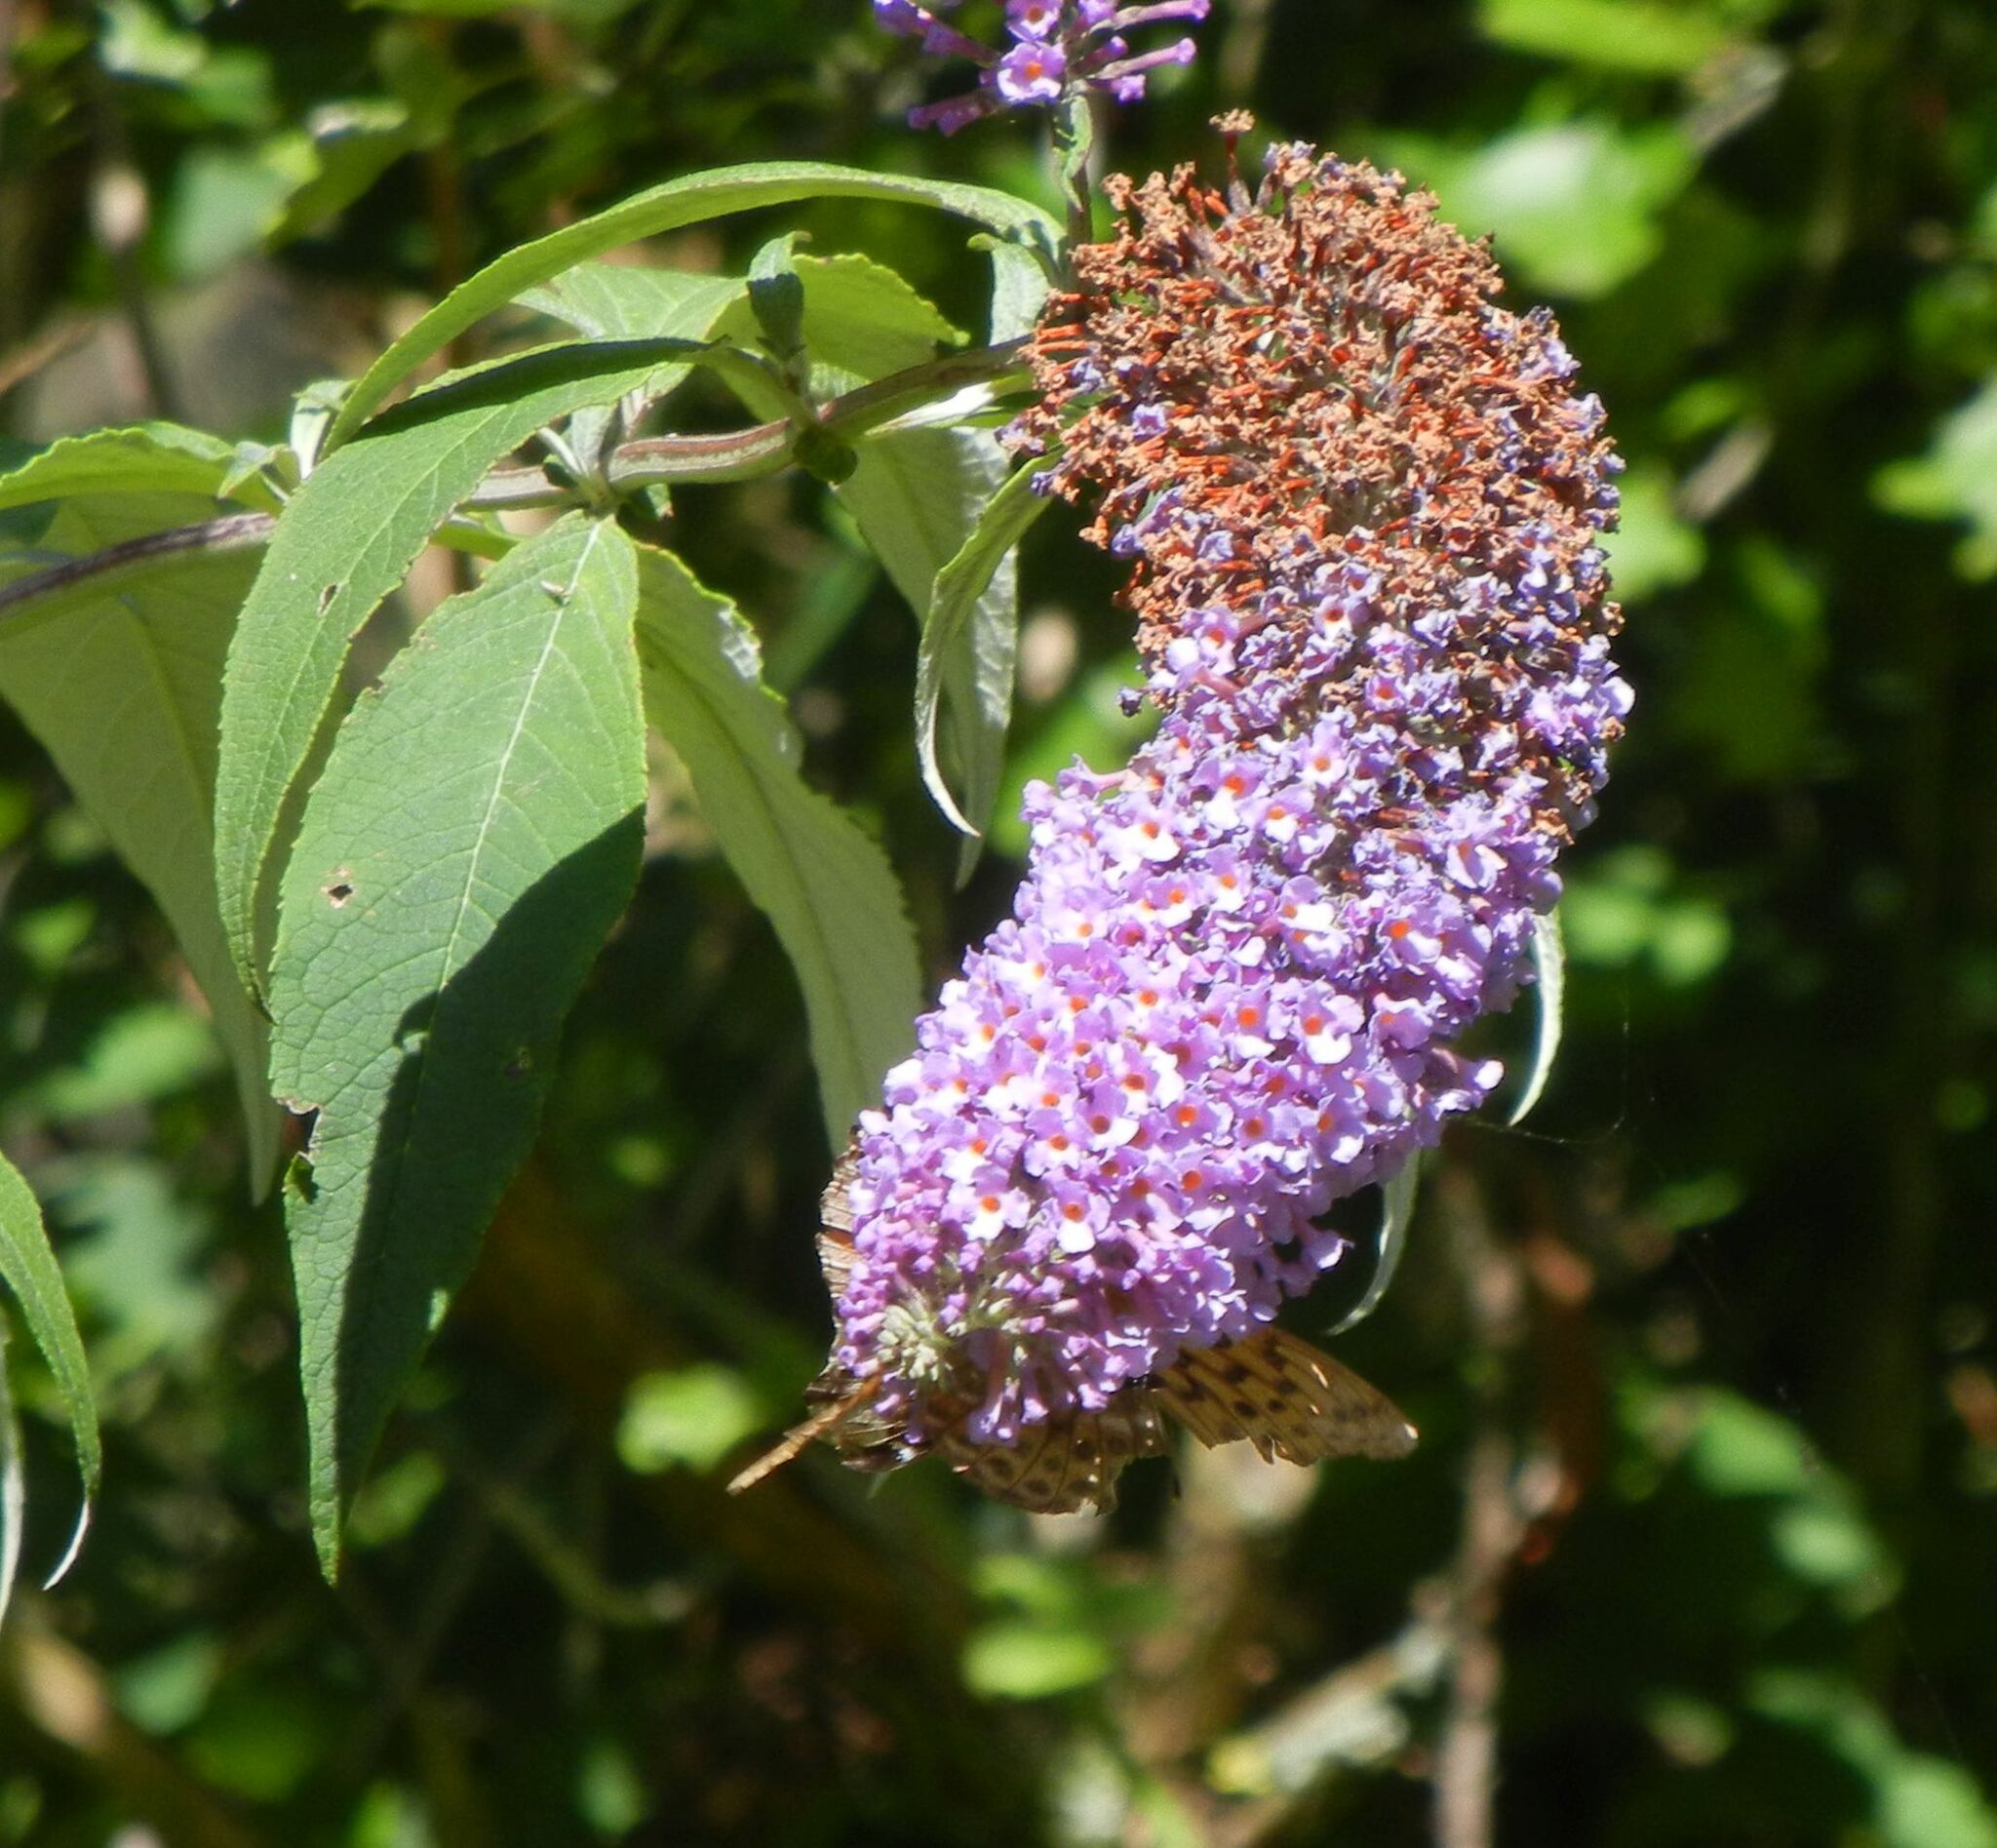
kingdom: Plantae
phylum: Tracheophyta
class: Magnoliopsida
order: Lamiales
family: Scrophulariaceae
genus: Buddleja
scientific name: Buddleja davidii
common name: Butterfly-bush
